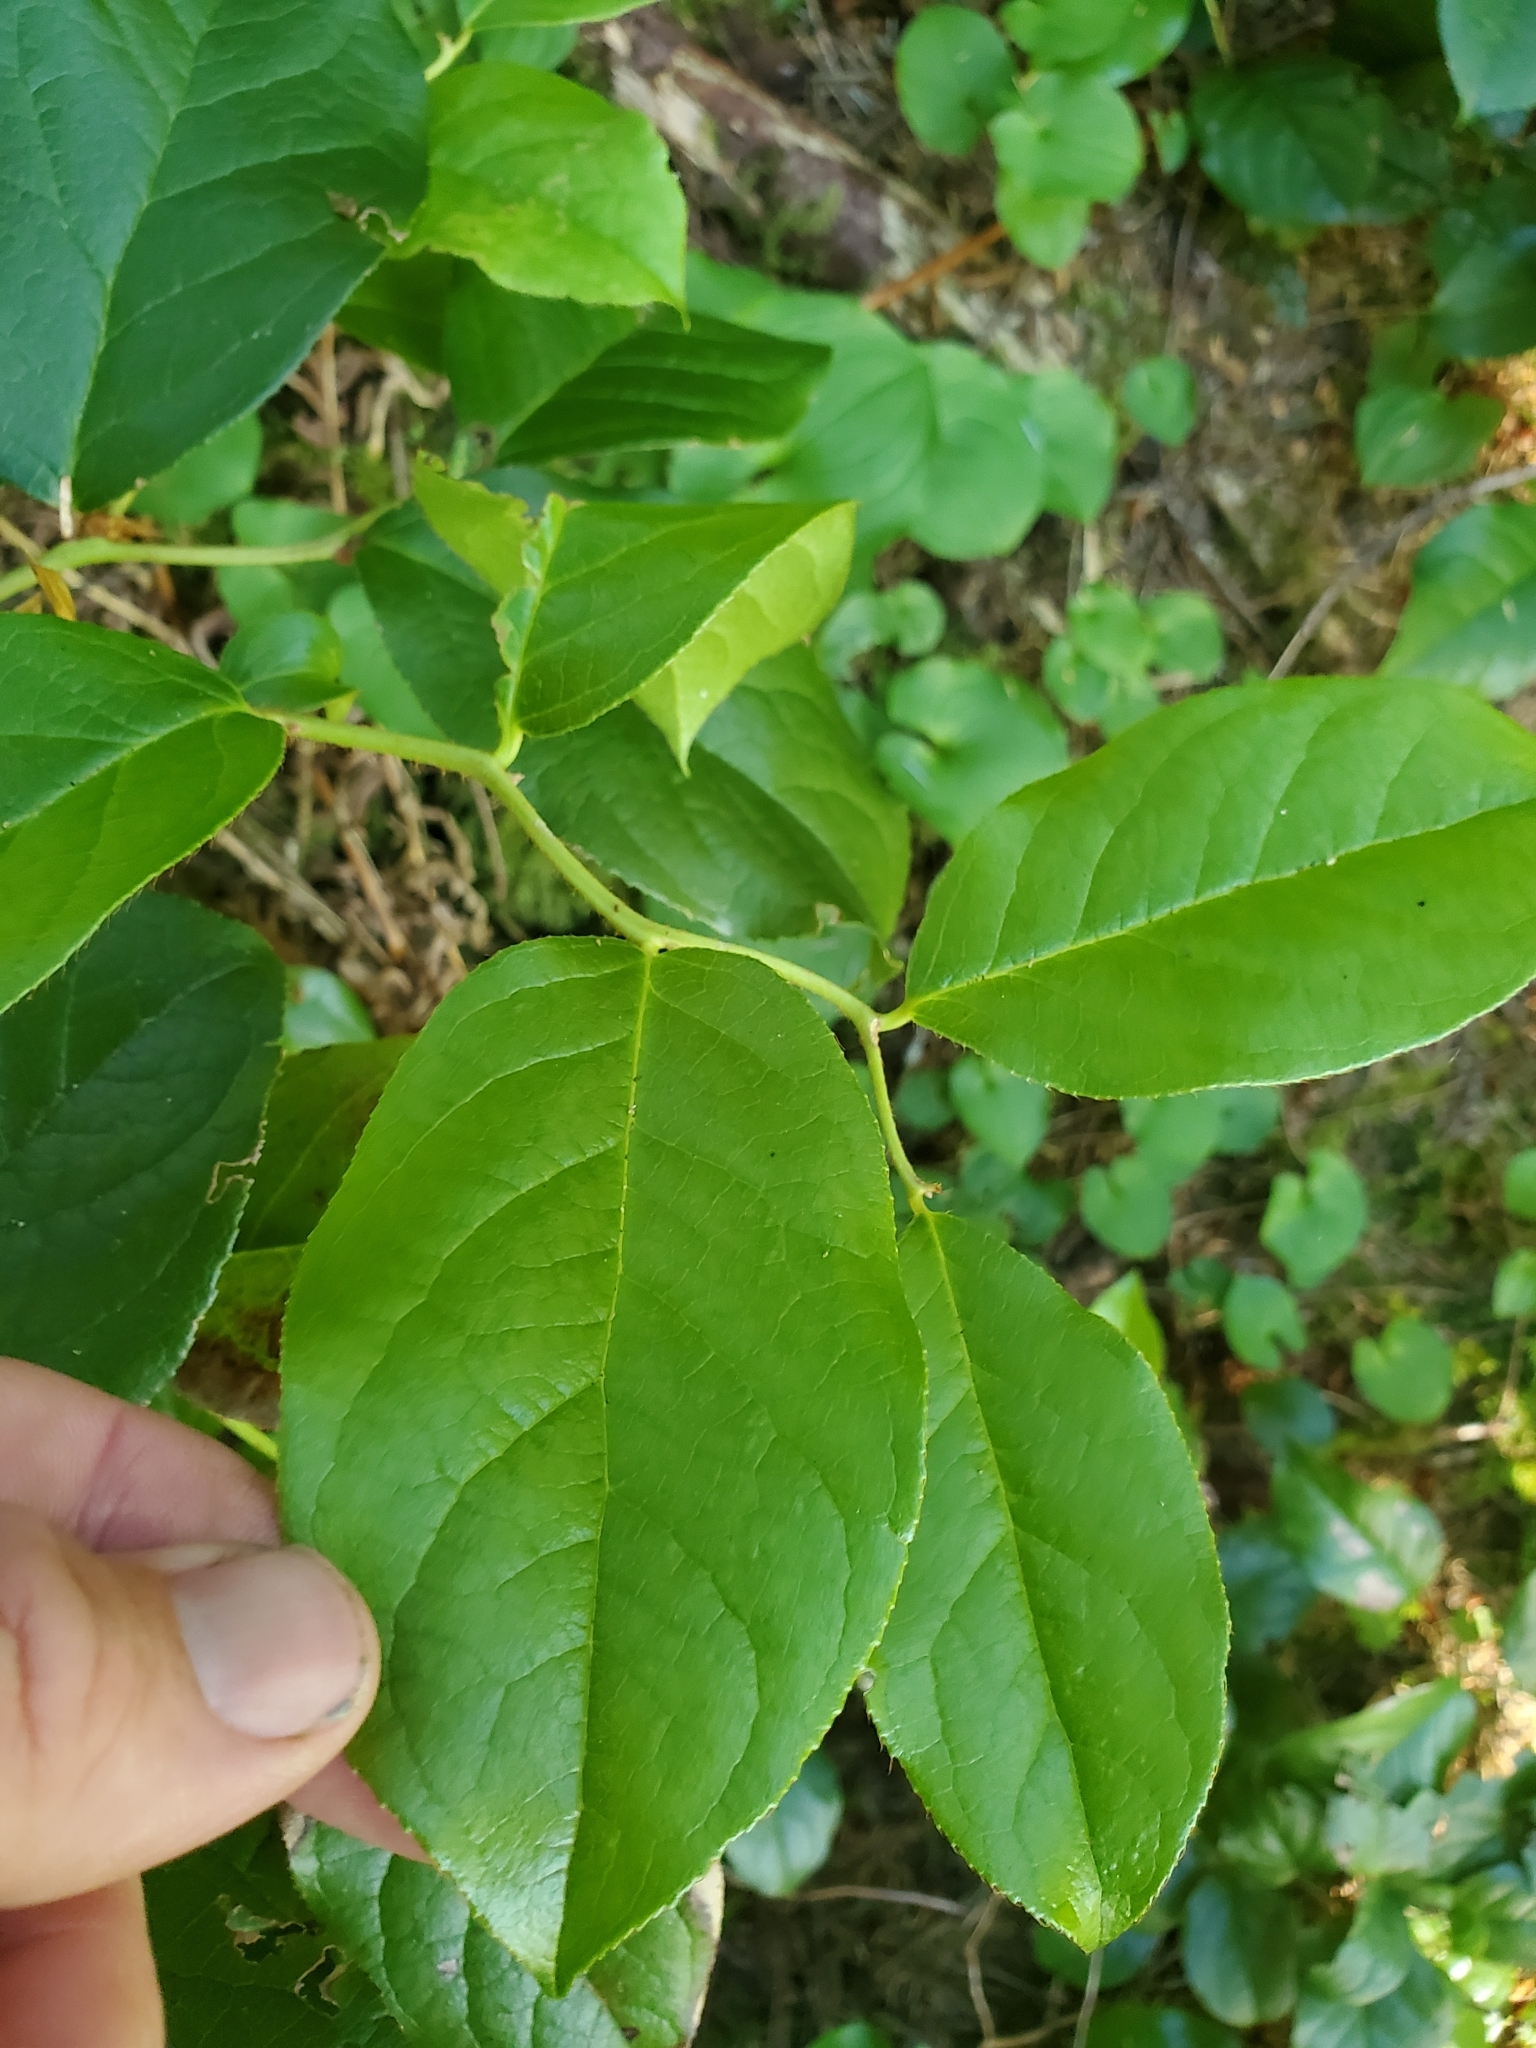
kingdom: Plantae
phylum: Tracheophyta
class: Magnoliopsida
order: Ericales
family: Ericaceae
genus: Gaultheria
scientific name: Gaultheria shallon
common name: Shallon
